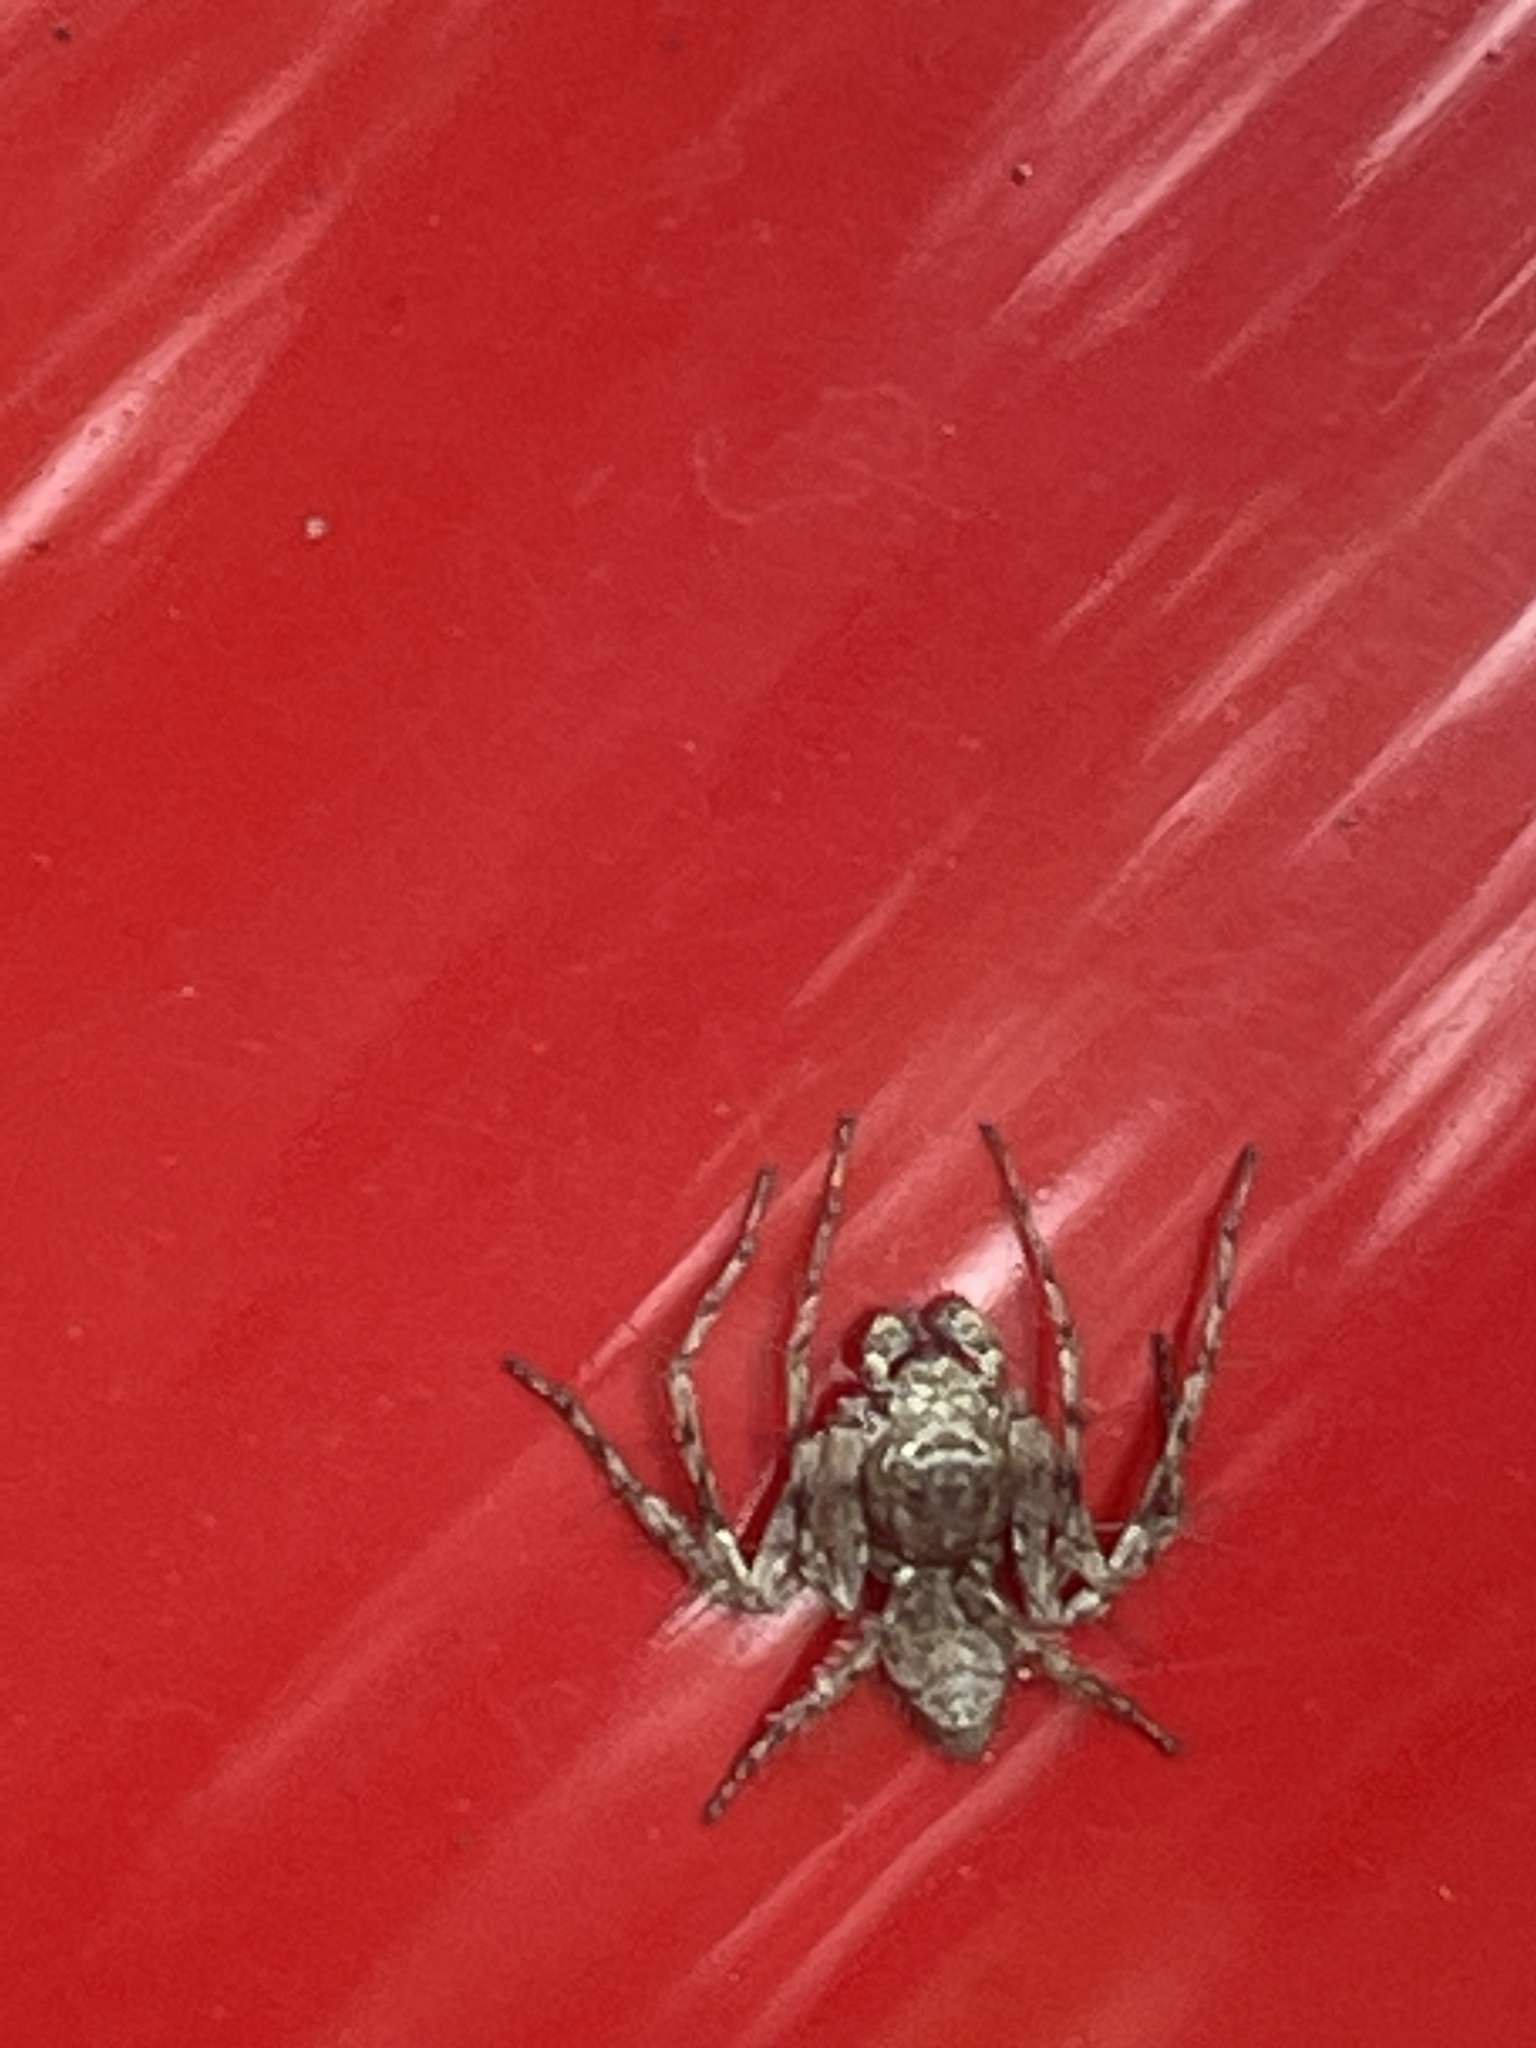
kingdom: Animalia
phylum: Arthropoda
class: Arachnida
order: Araneae
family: Oxyopidae
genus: Hamataliwa
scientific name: Hamataliwa grisea
